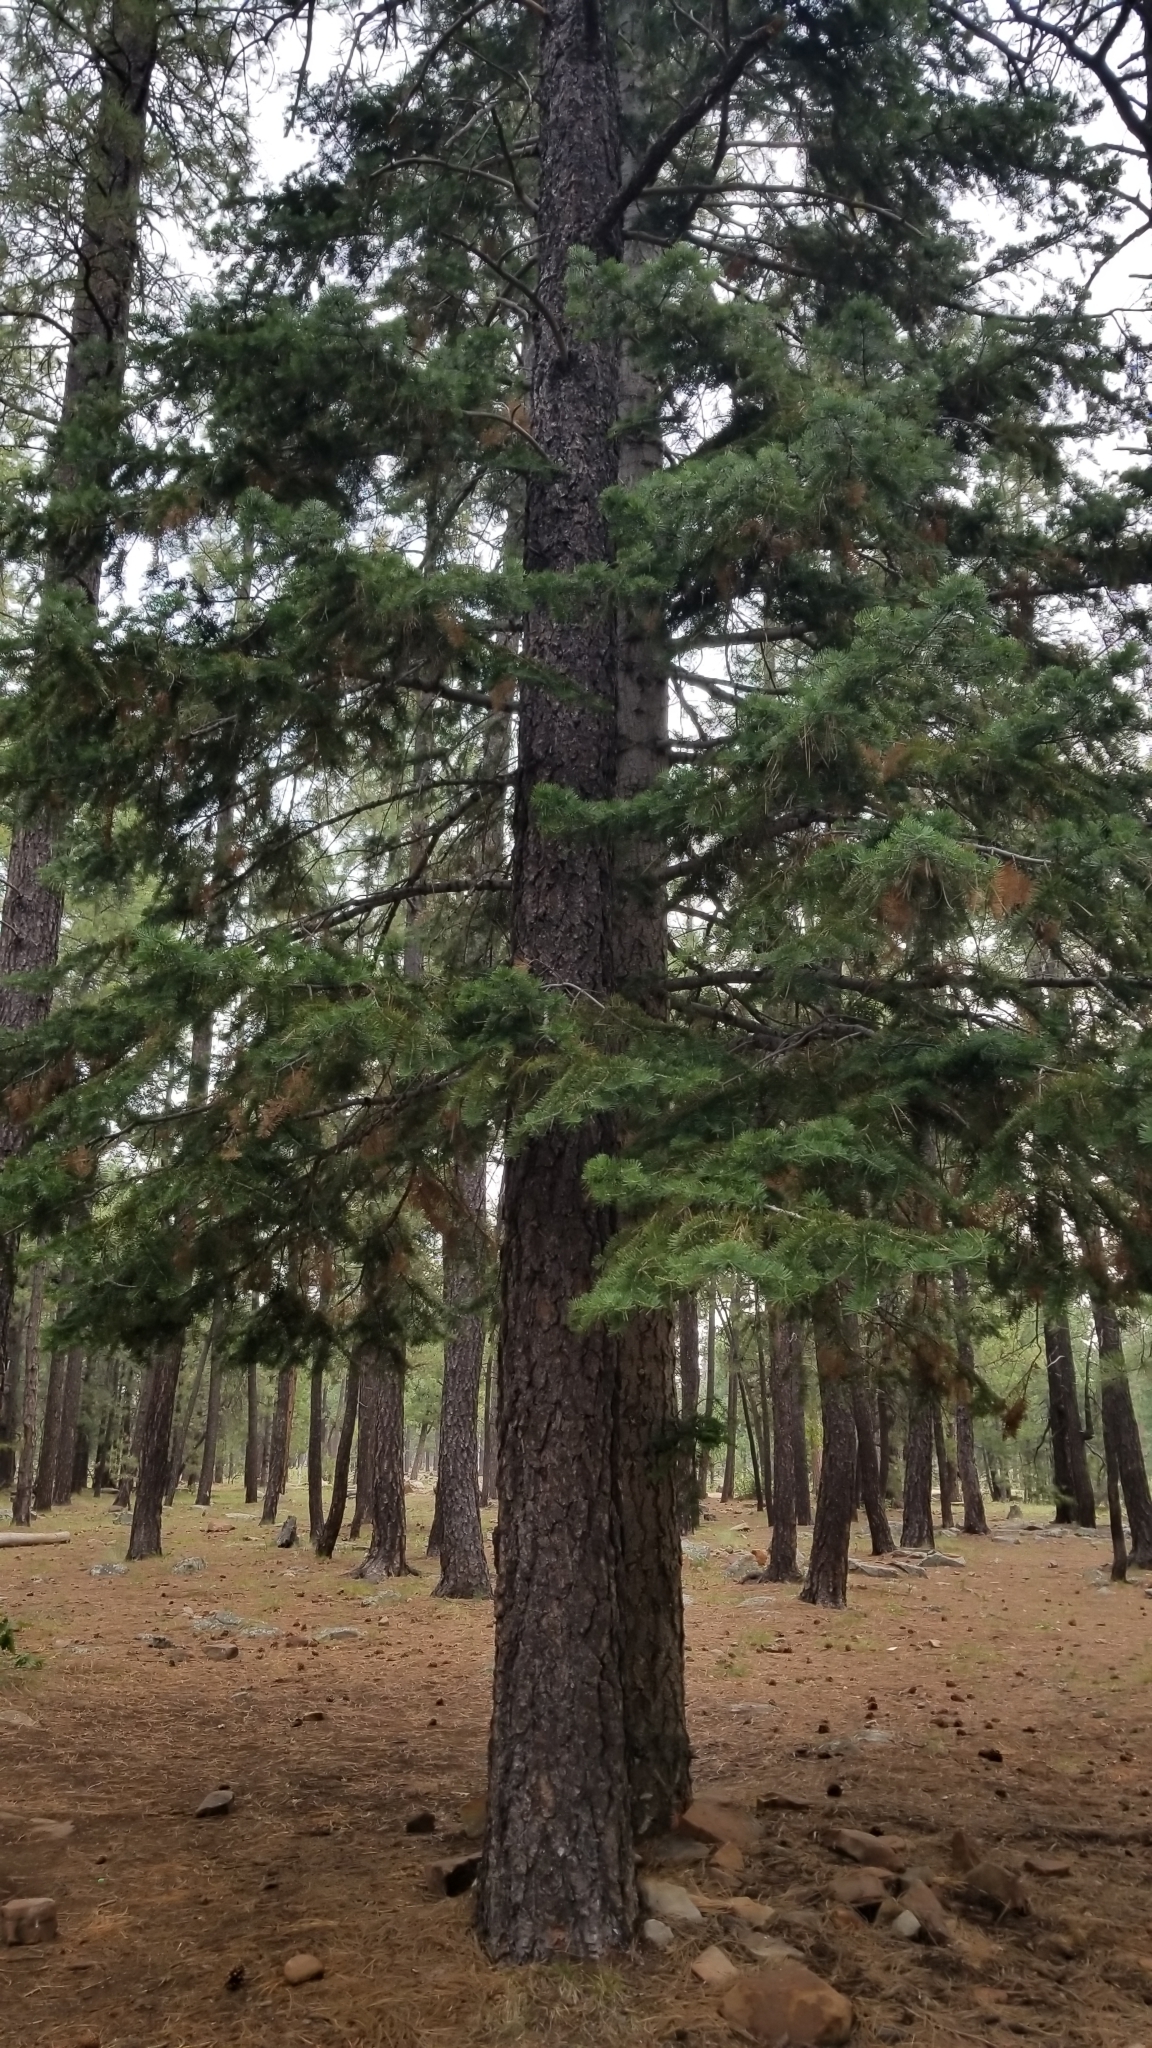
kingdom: Plantae
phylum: Tracheophyta
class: Pinopsida
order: Pinales
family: Pinaceae
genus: Abies
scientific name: Abies concolor
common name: Colorado fir
